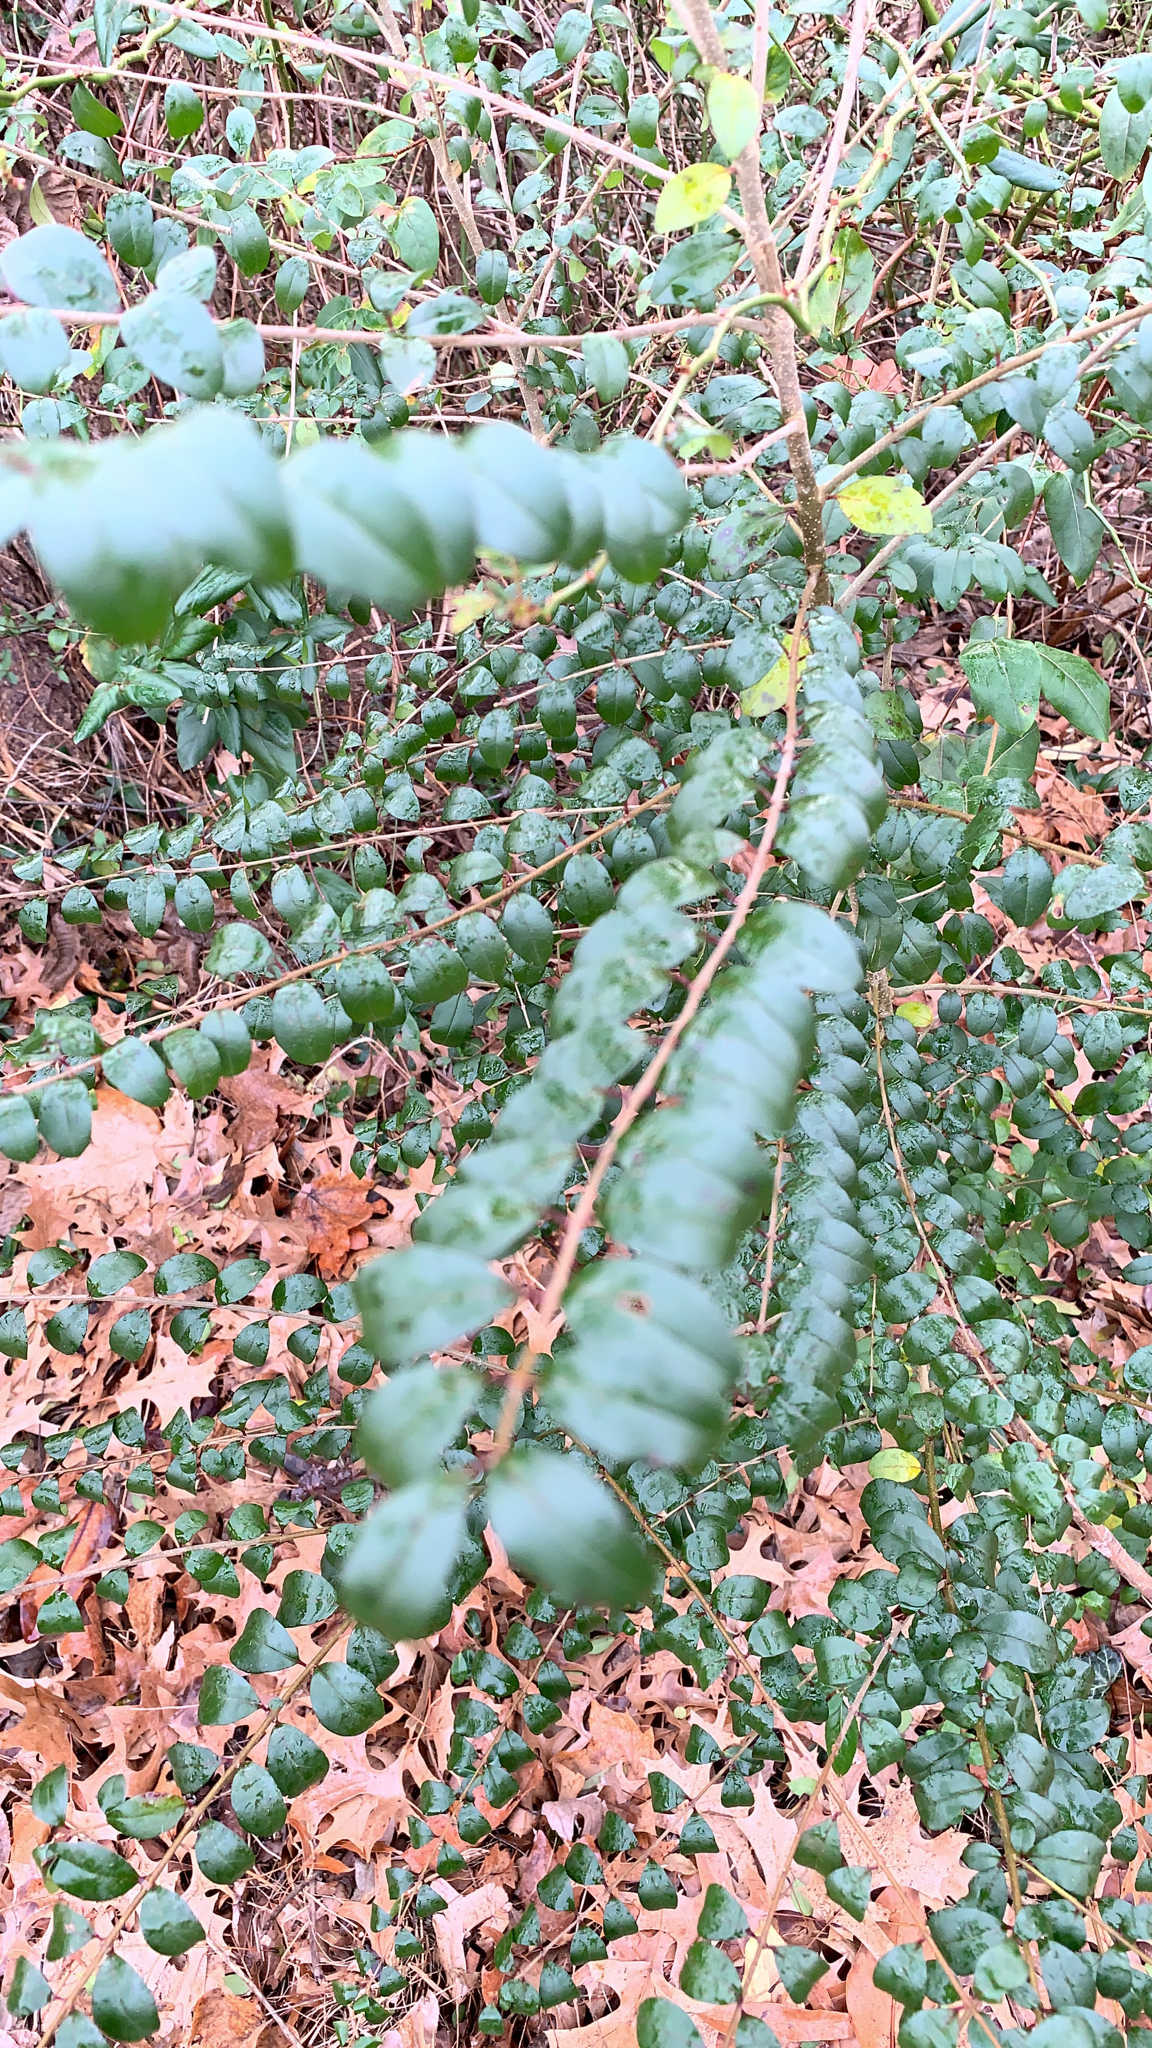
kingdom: Plantae
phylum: Tracheophyta
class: Magnoliopsida
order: Lamiales
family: Oleaceae
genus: Ligustrum
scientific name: Ligustrum sinense
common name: Chinese privet
